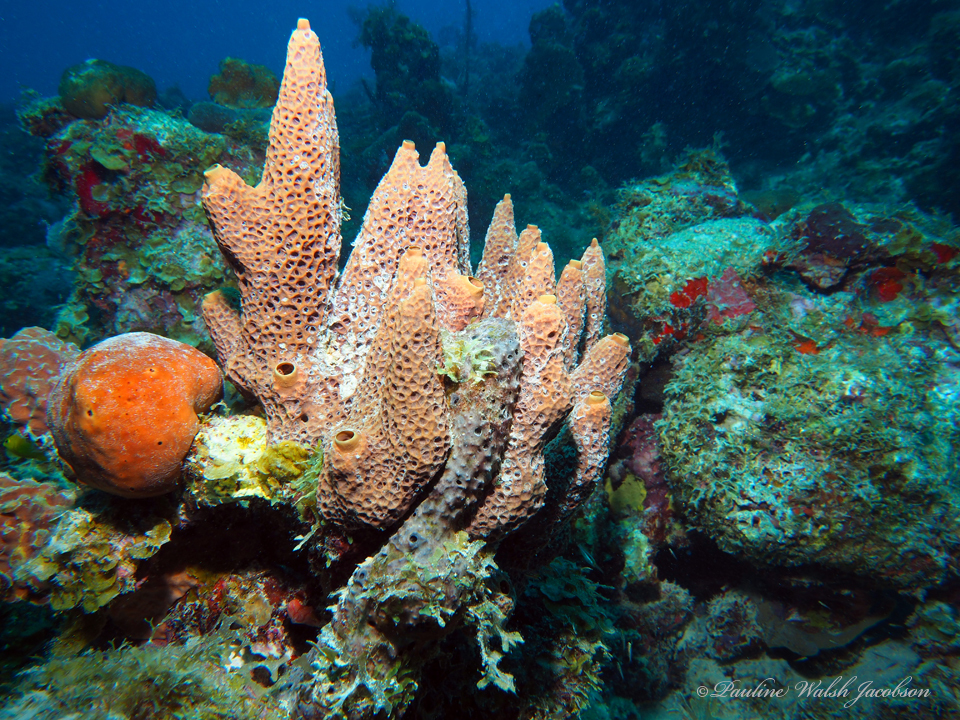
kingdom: Animalia
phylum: Porifera
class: Demospongiae
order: Dictyoceratida
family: Thorectidae
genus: Smenospongia
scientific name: Smenospongia aurea
